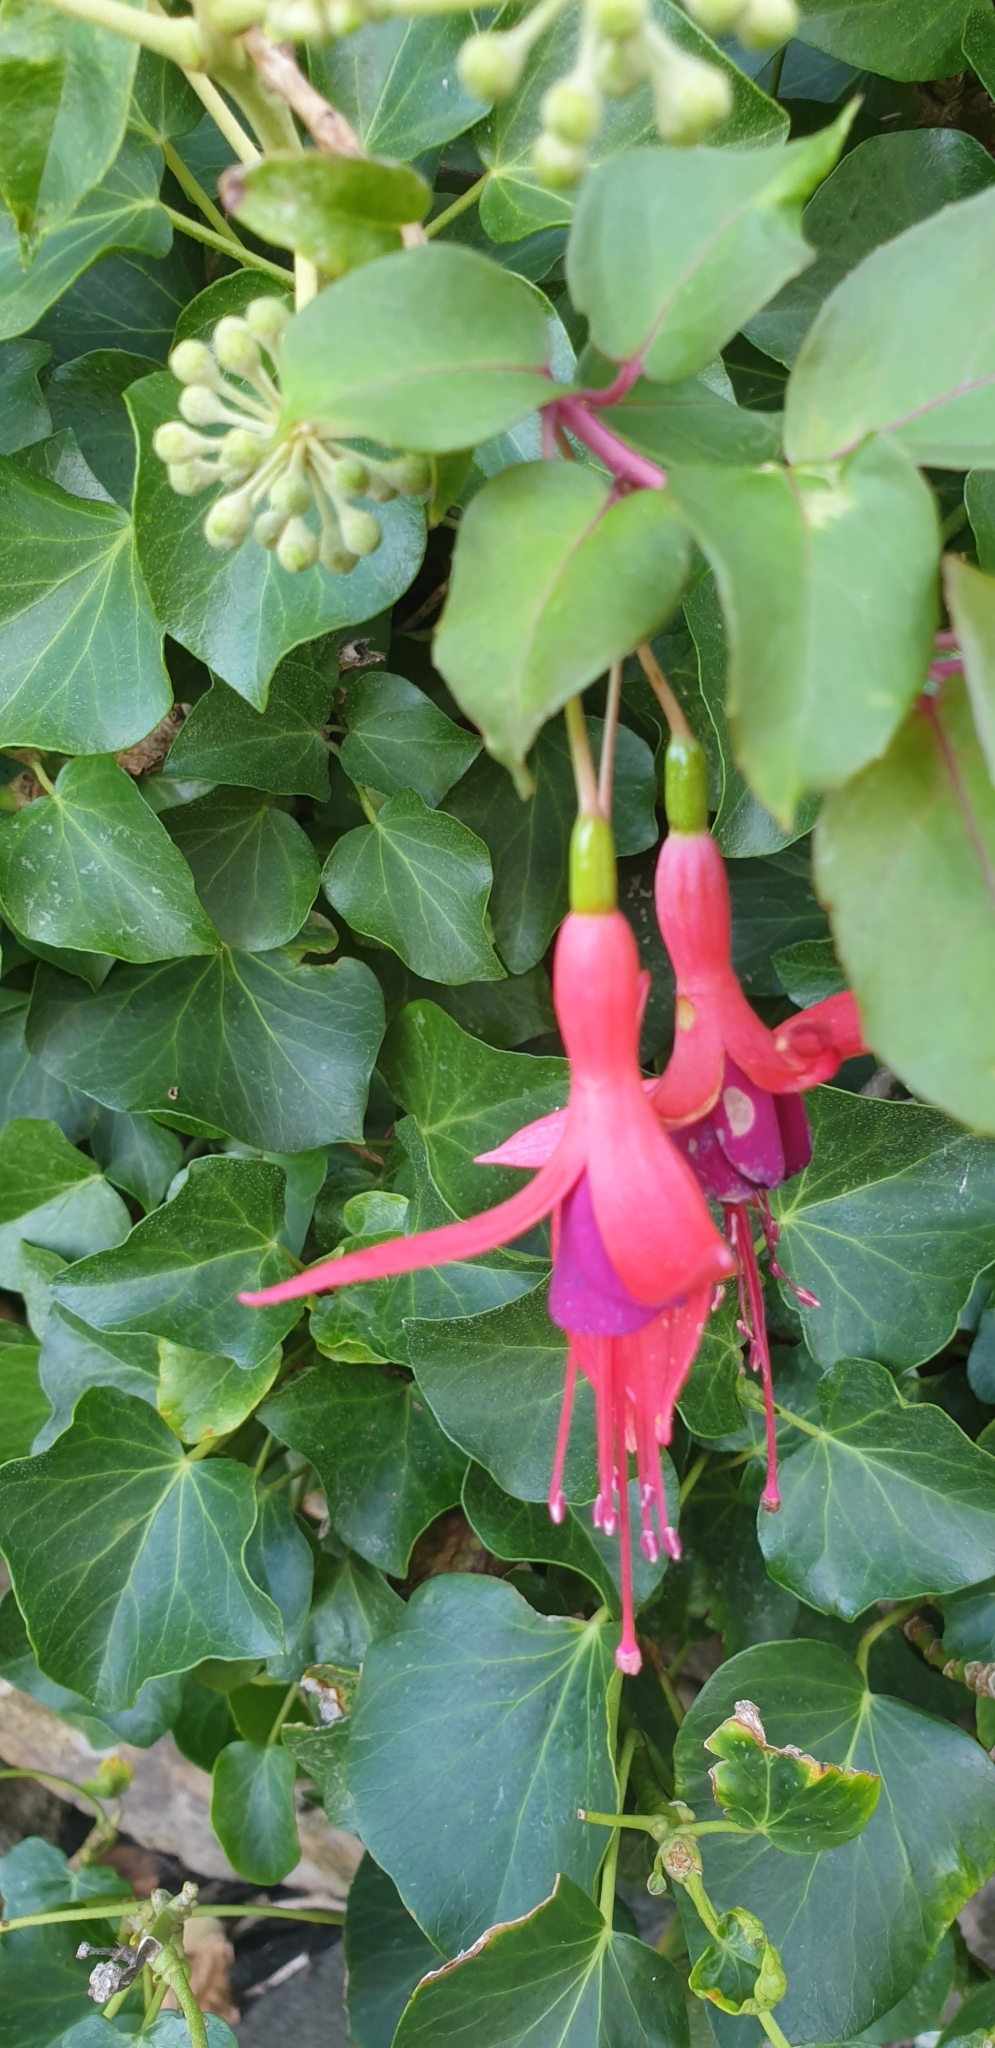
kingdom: Plantae
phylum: Tracheophyta
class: Magnoliopsida
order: Myrtales
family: Onagraceae
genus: Fuchsia
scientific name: Fuchsia magellanica
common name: Hardy fuchsia
